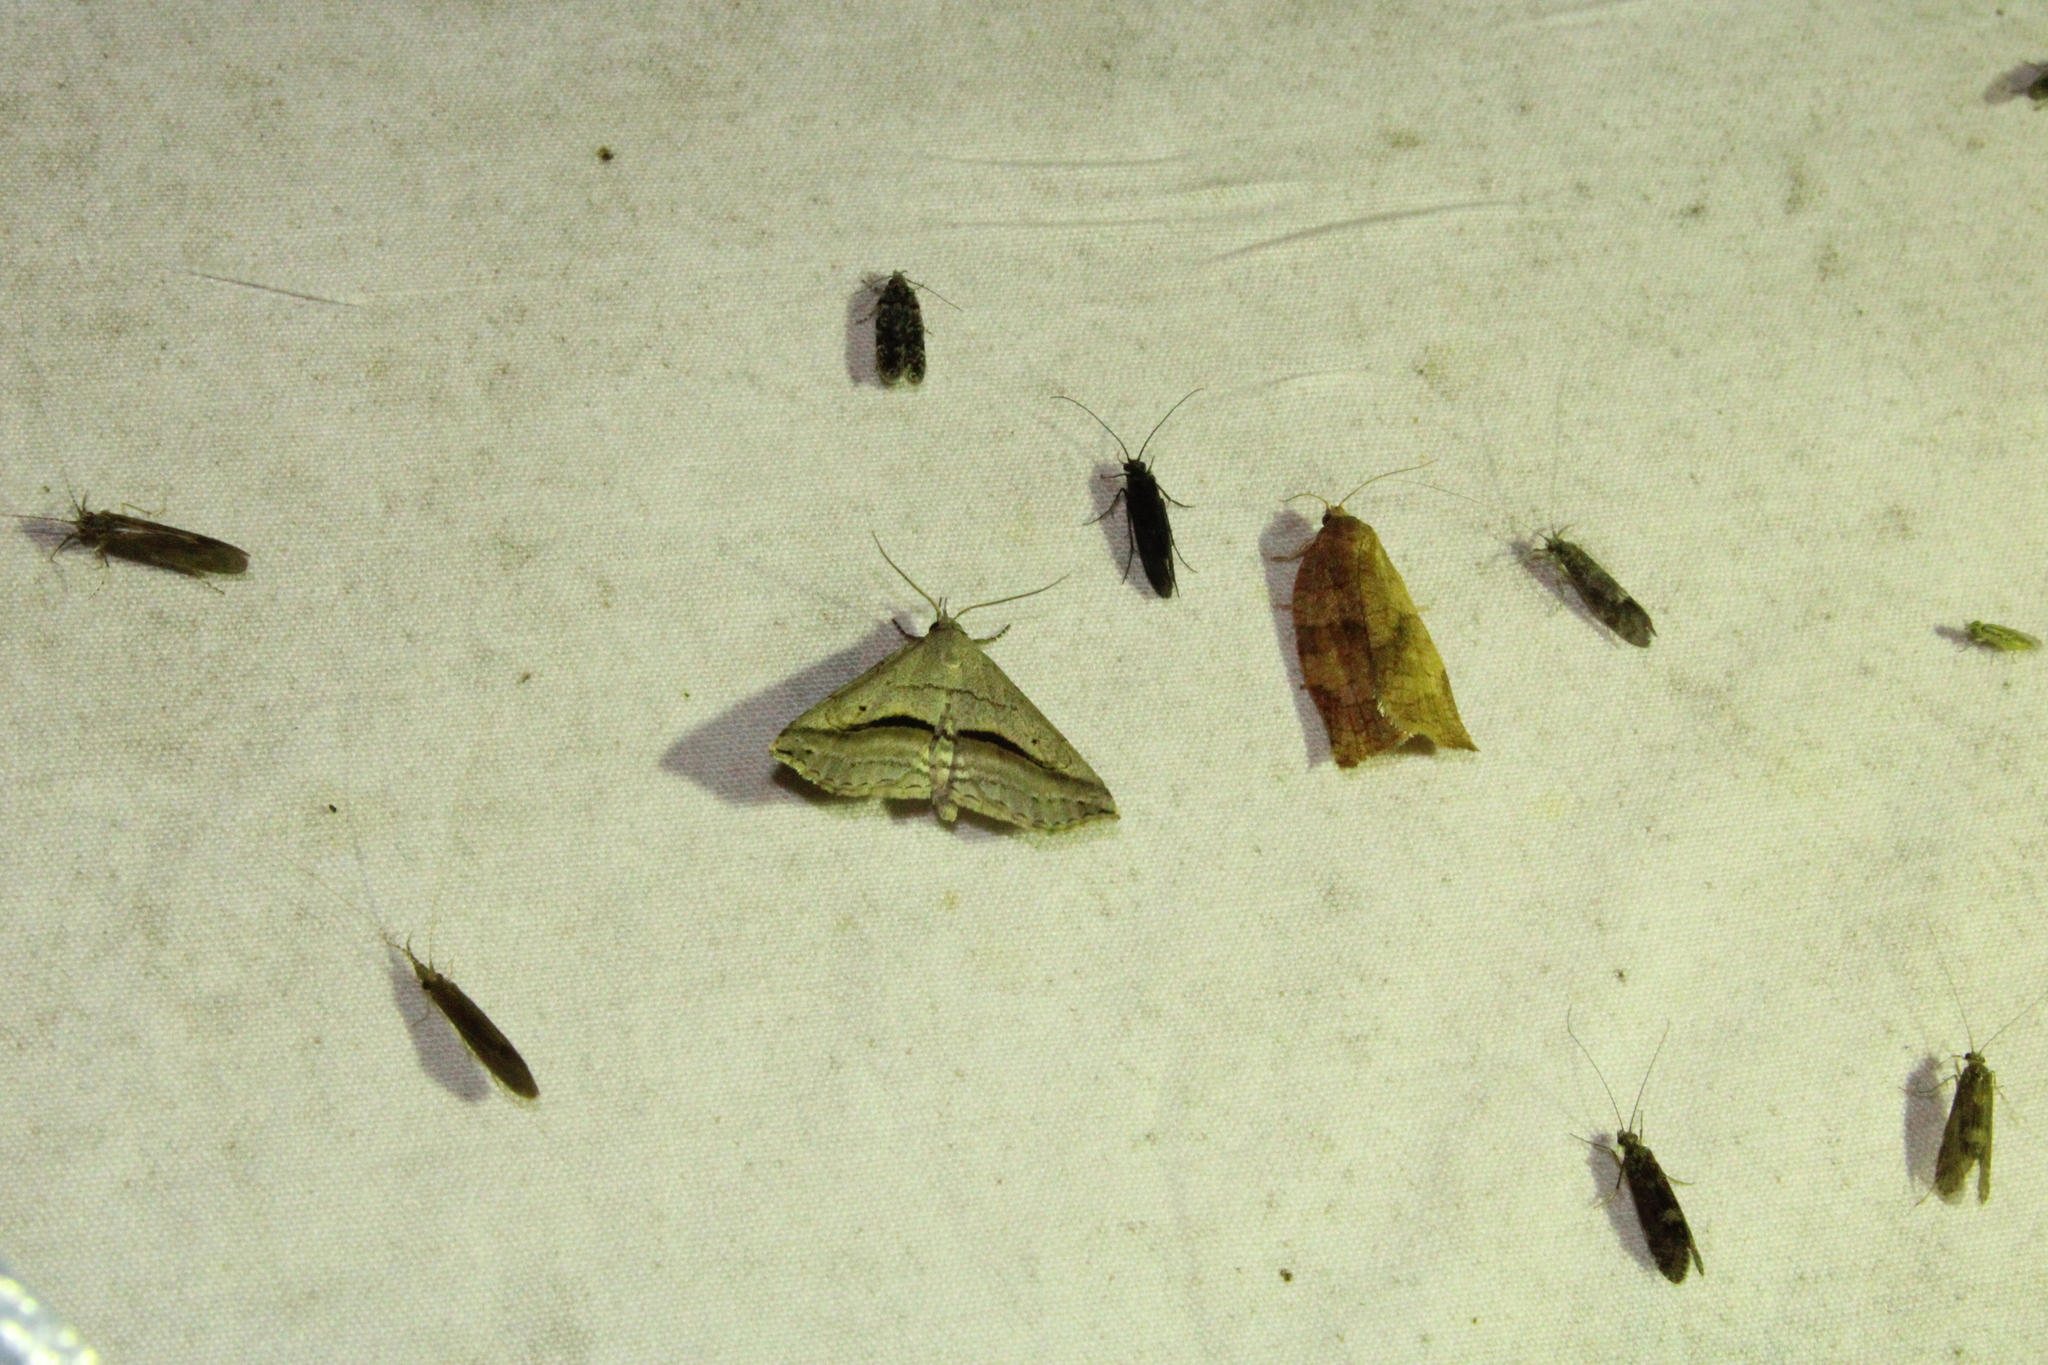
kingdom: Animalia
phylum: Arthropoda
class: Insecta
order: Lepidoptera
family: Erebidae
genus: Spargaloma
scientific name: Spargaloma perditalis
